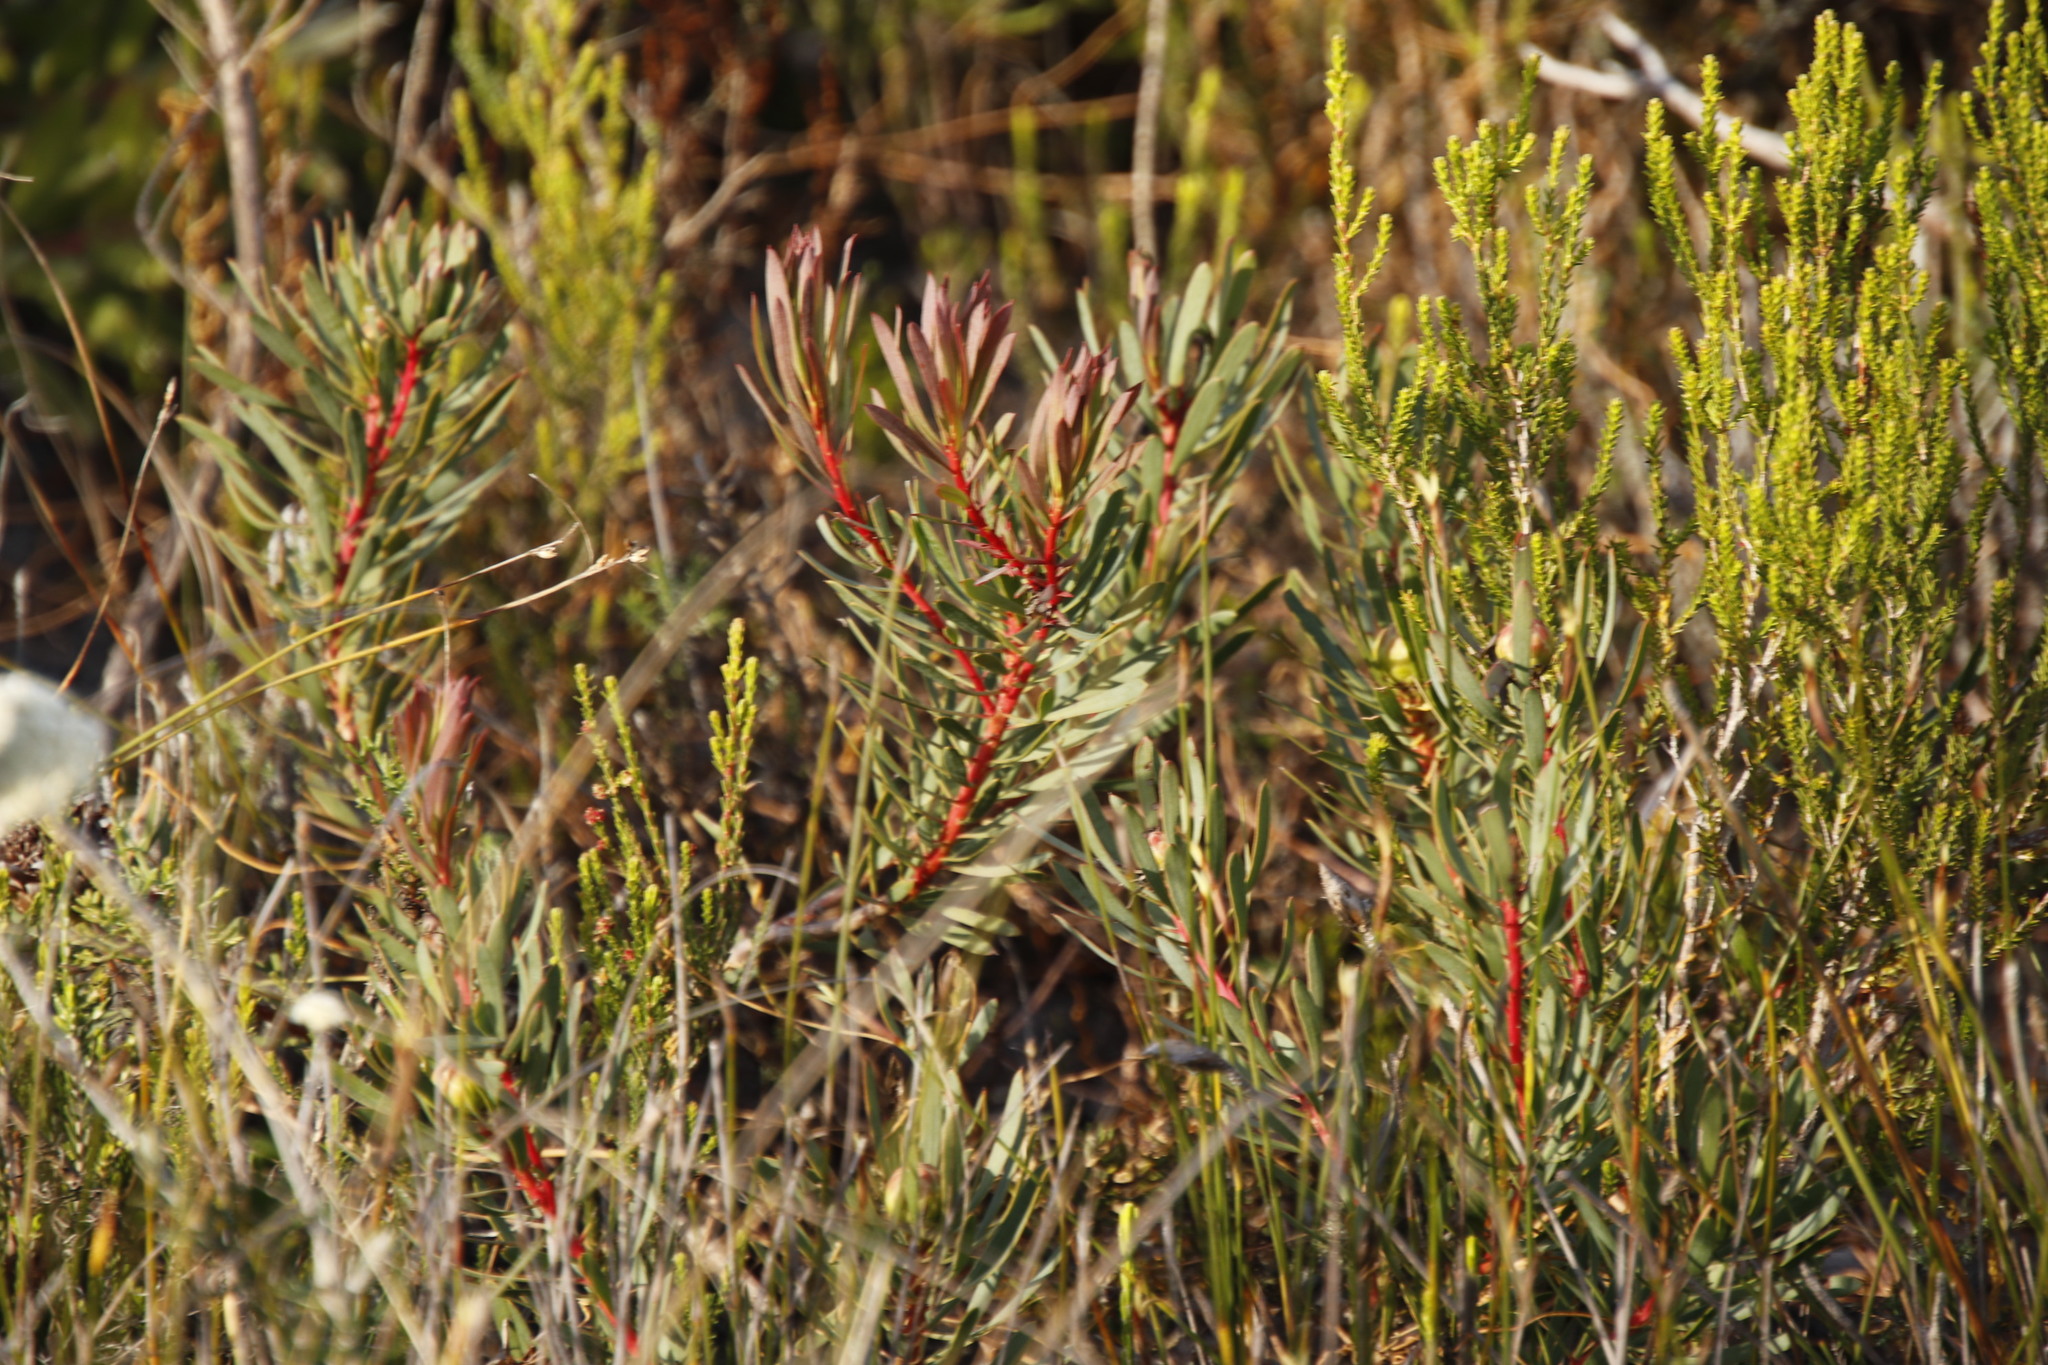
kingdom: Plantae
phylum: Tracheophyta
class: Magnoliopsida
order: Proteales
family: Proteaceae
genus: Protea
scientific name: Protea scolymocephala
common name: Thistle sugarbush
